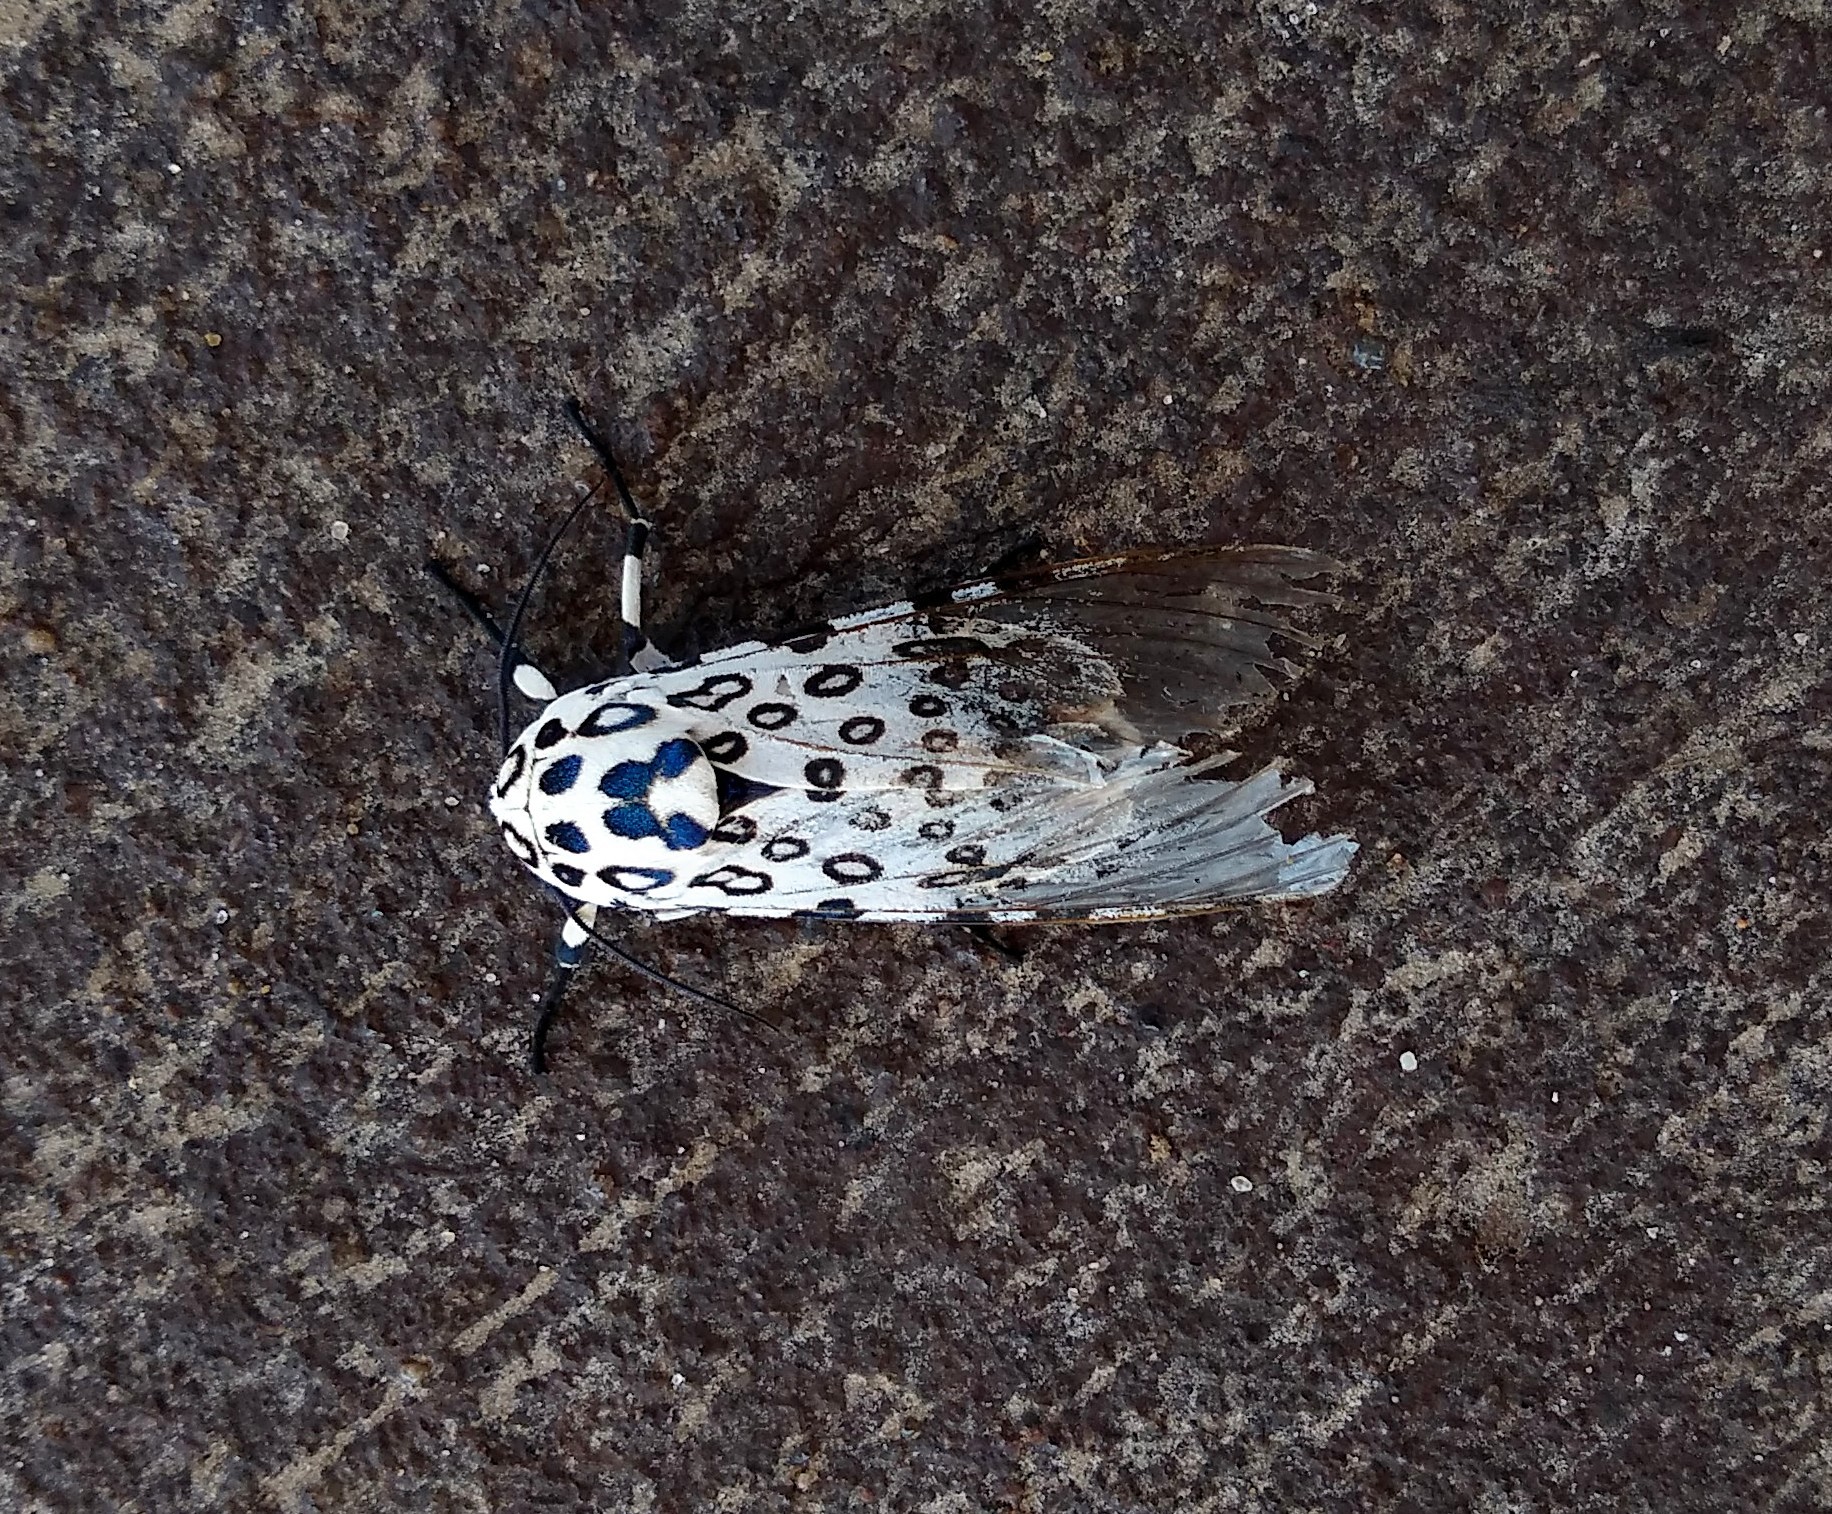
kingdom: Animalia
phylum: Arthropoda
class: Insecta
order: Lepidoptera
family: Erebidae
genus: Hypercompe
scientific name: Hypercompe scribonia
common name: Giant leopard moth
